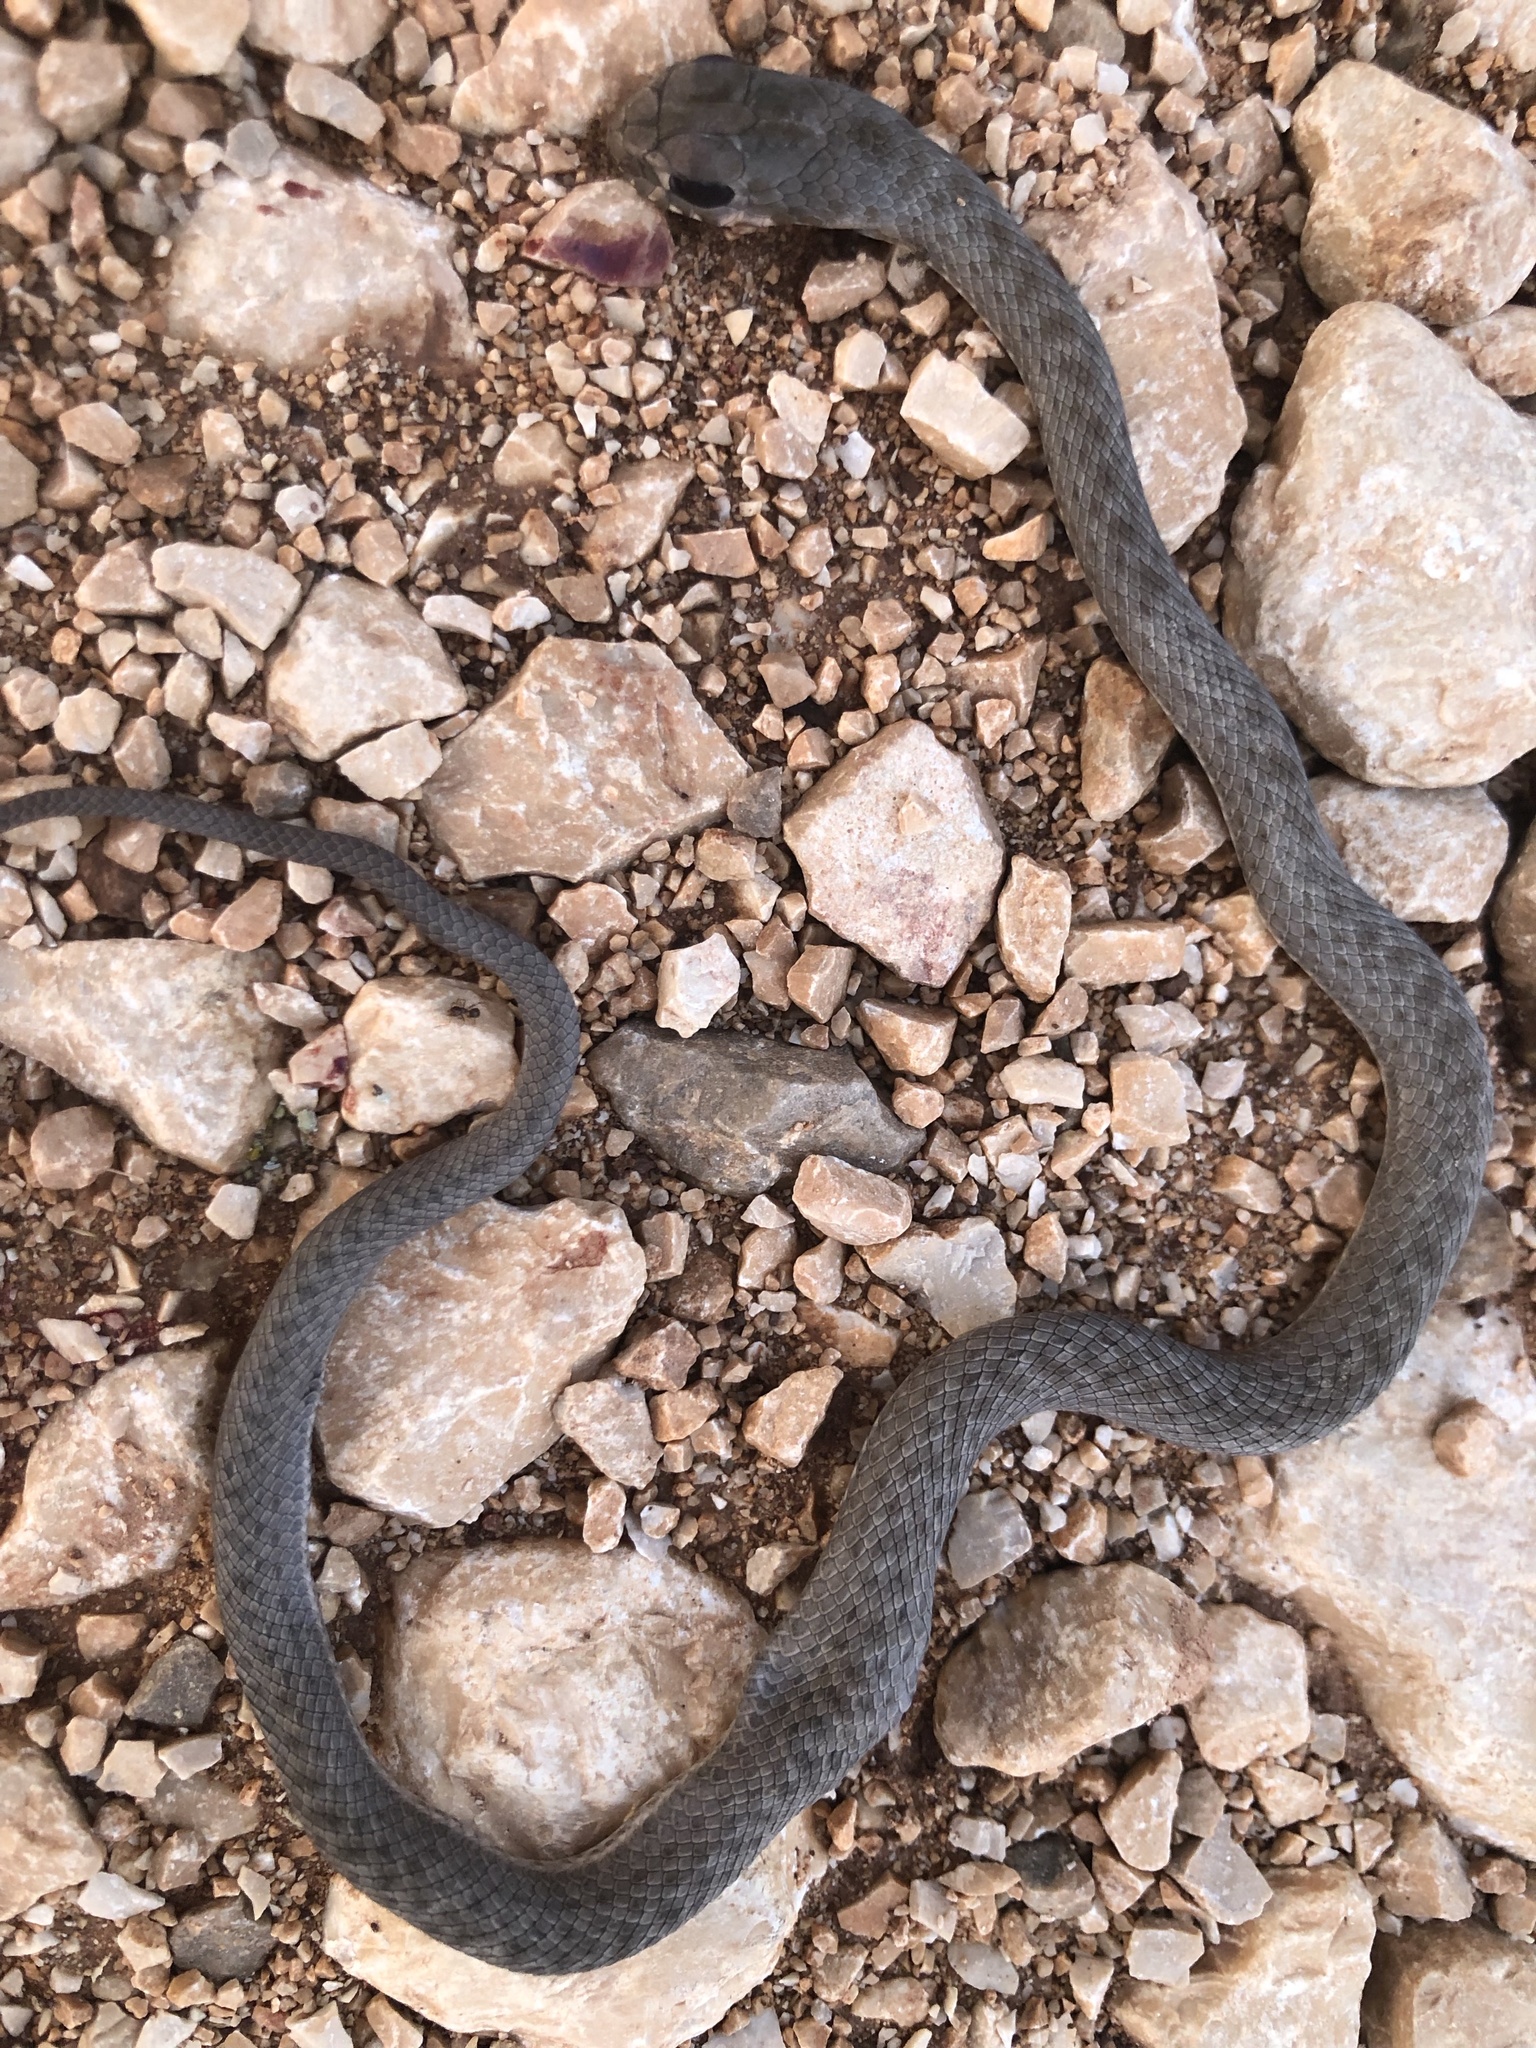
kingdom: Animalia
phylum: Chordata
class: Squamata
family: Psammophiidae
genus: Malpolon
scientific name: Malpolon insignitus
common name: Eastern montpellier snake
